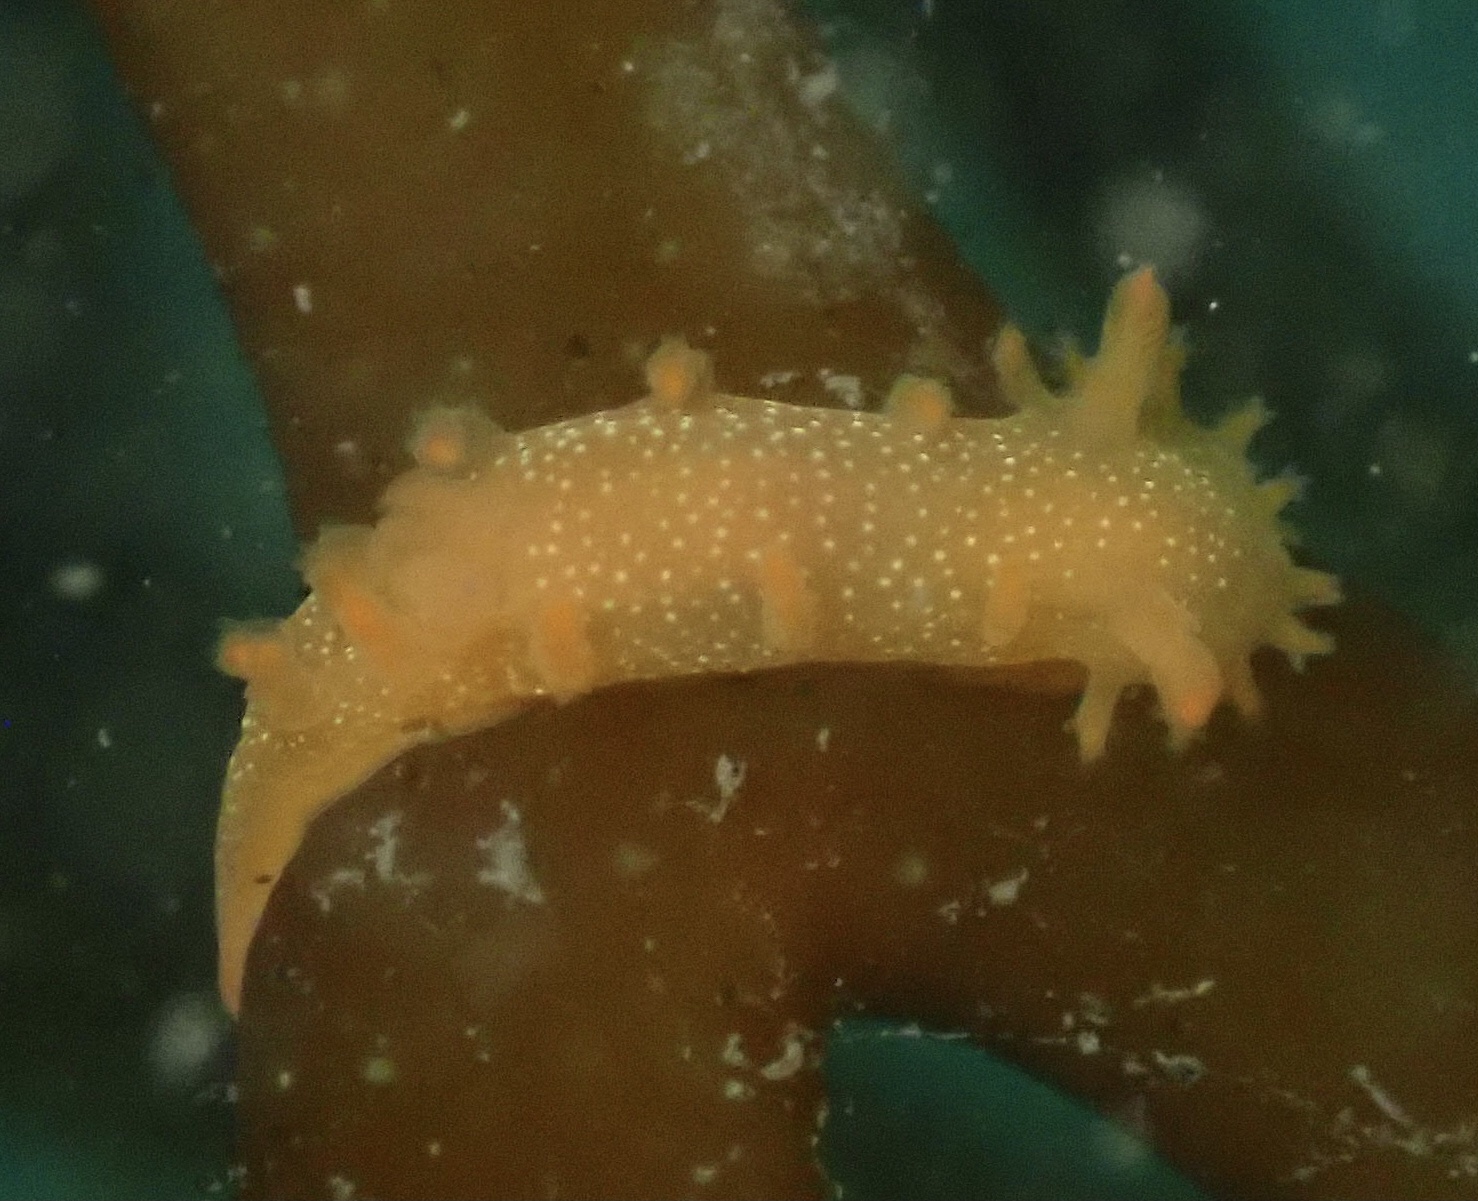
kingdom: Animalia
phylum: Mollusca
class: Gastropoda
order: Nudibranchia
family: Polyceridae
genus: Triopha
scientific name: Triopha maculata
